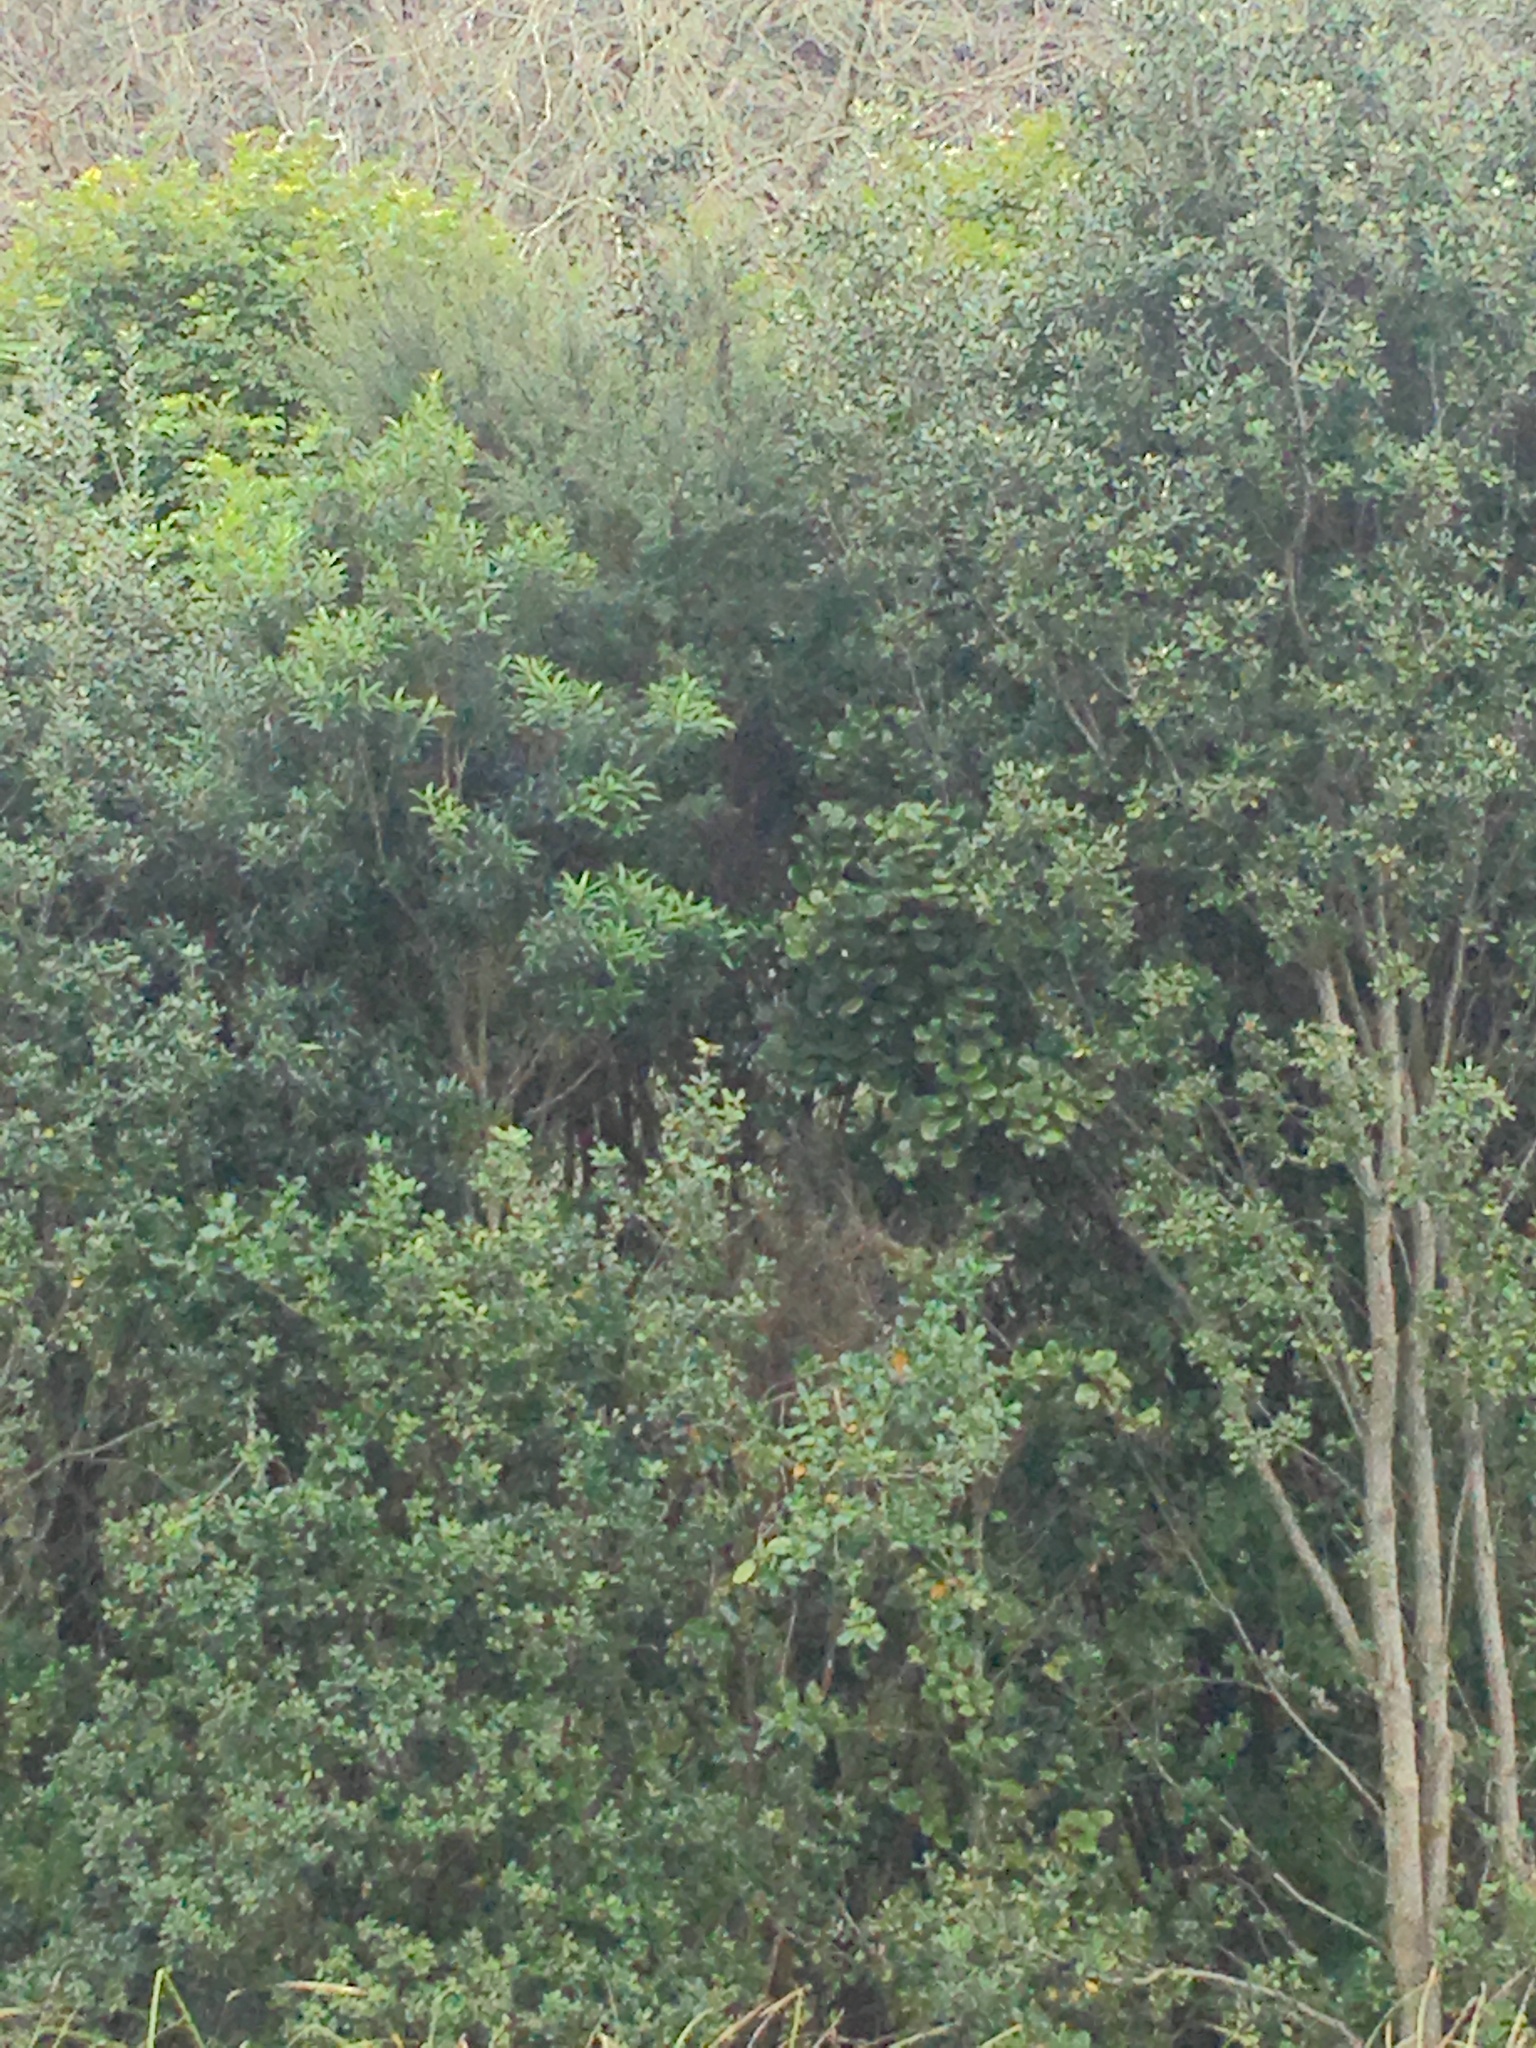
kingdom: Plantae
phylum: Tracheophyta
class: Magnoliopsida
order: Cucurbitales
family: Corynocarpaceae
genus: Corynocarpus
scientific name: Corynocarpus laevigatus
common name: New zealand laurel
